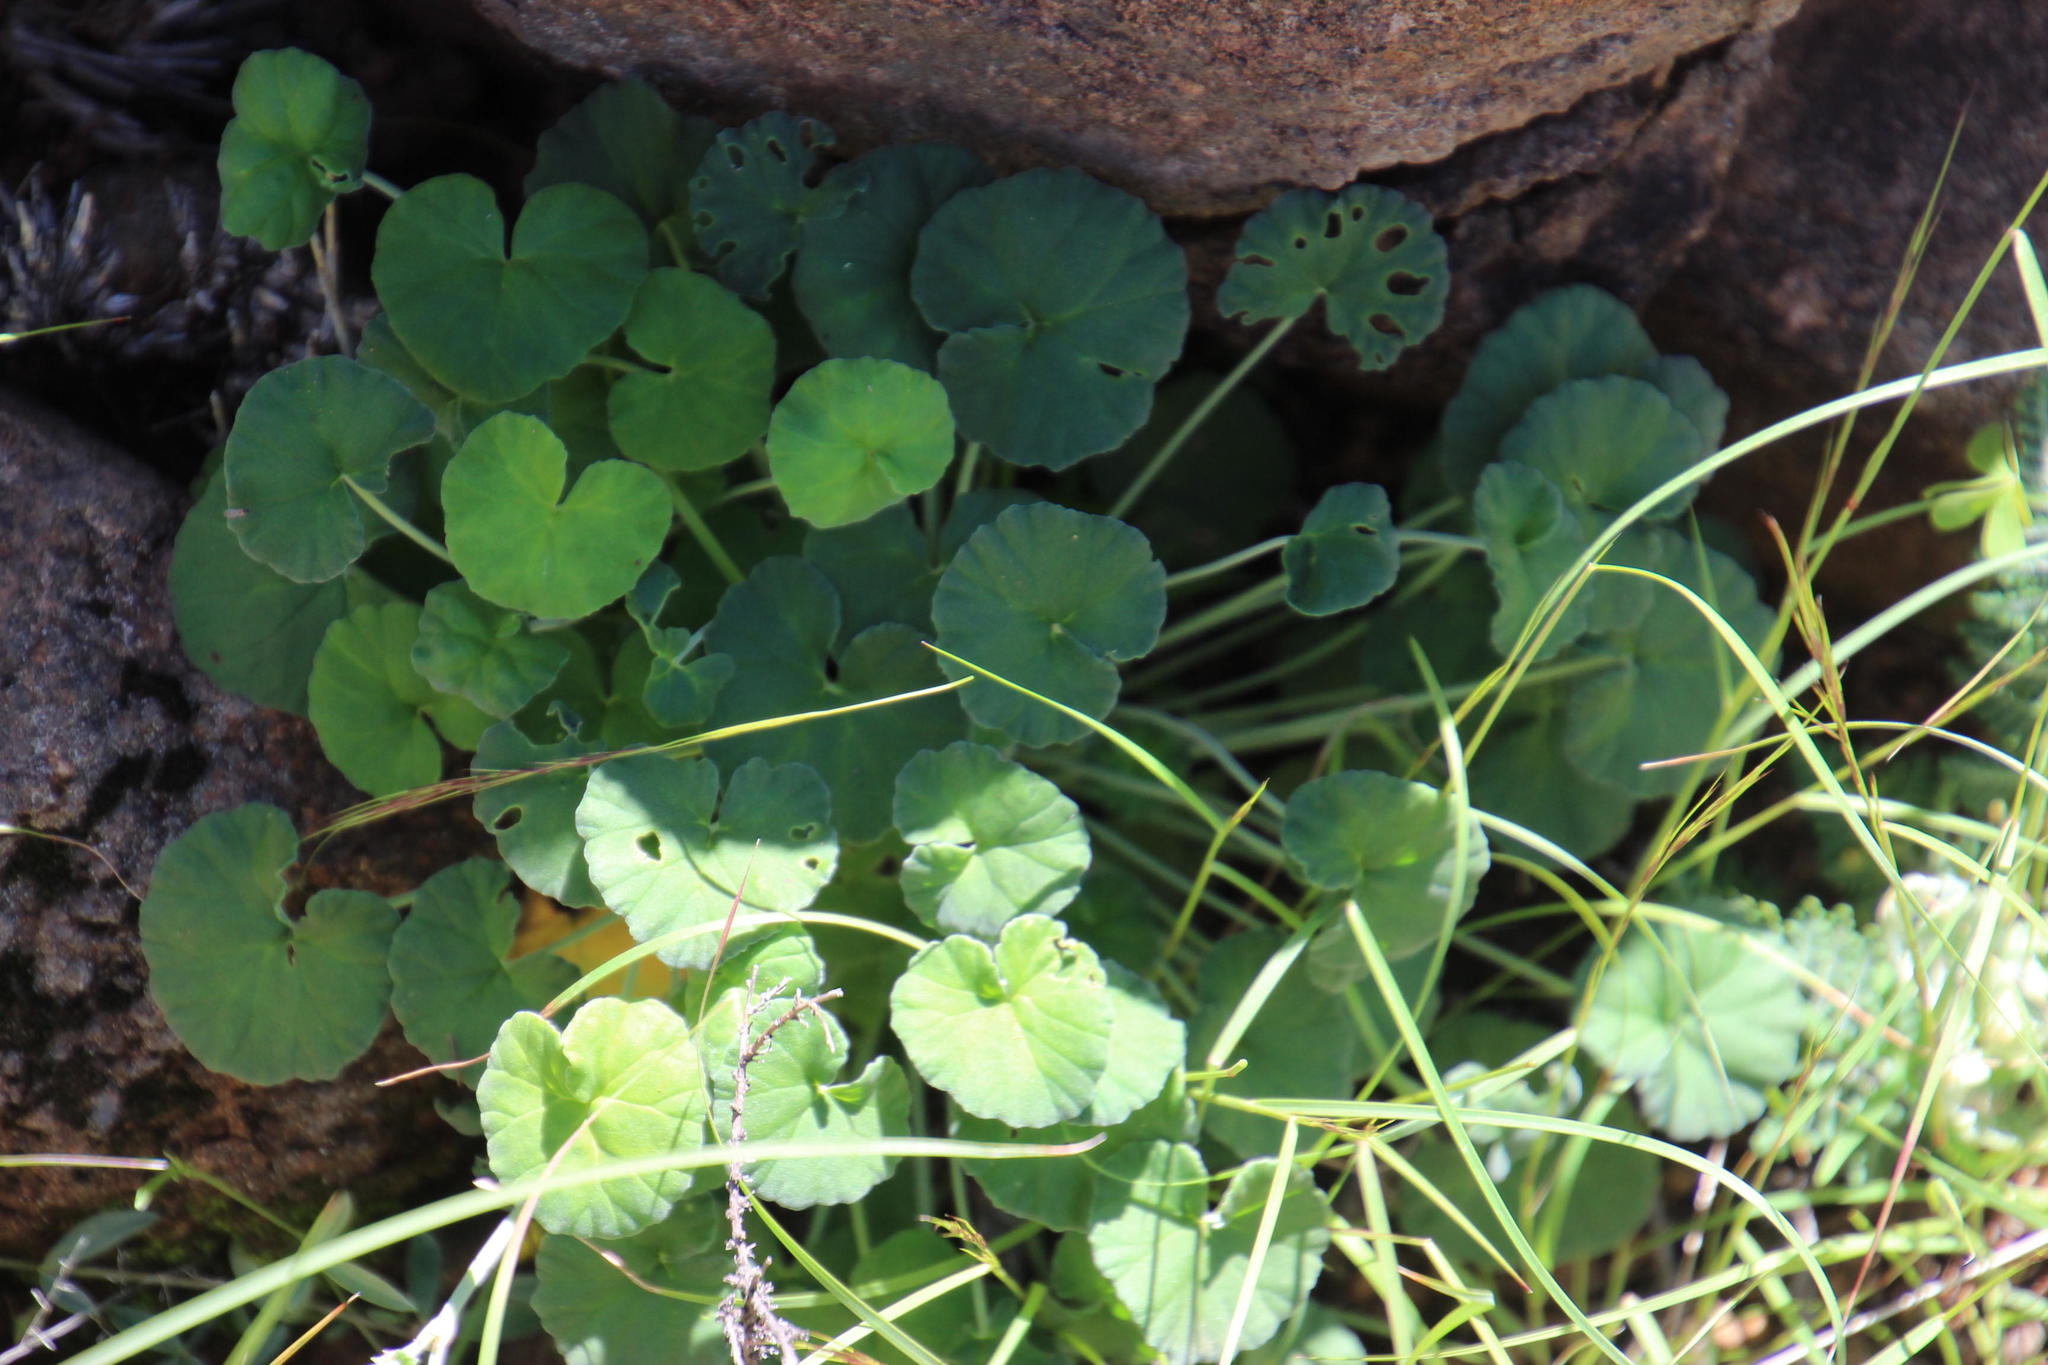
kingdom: Plantae
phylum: Tracheophyta
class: Magnoliopsida
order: Geraniales
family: Geraniaceae
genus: Pelargonium
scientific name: Pelargonium dichondrifolium
